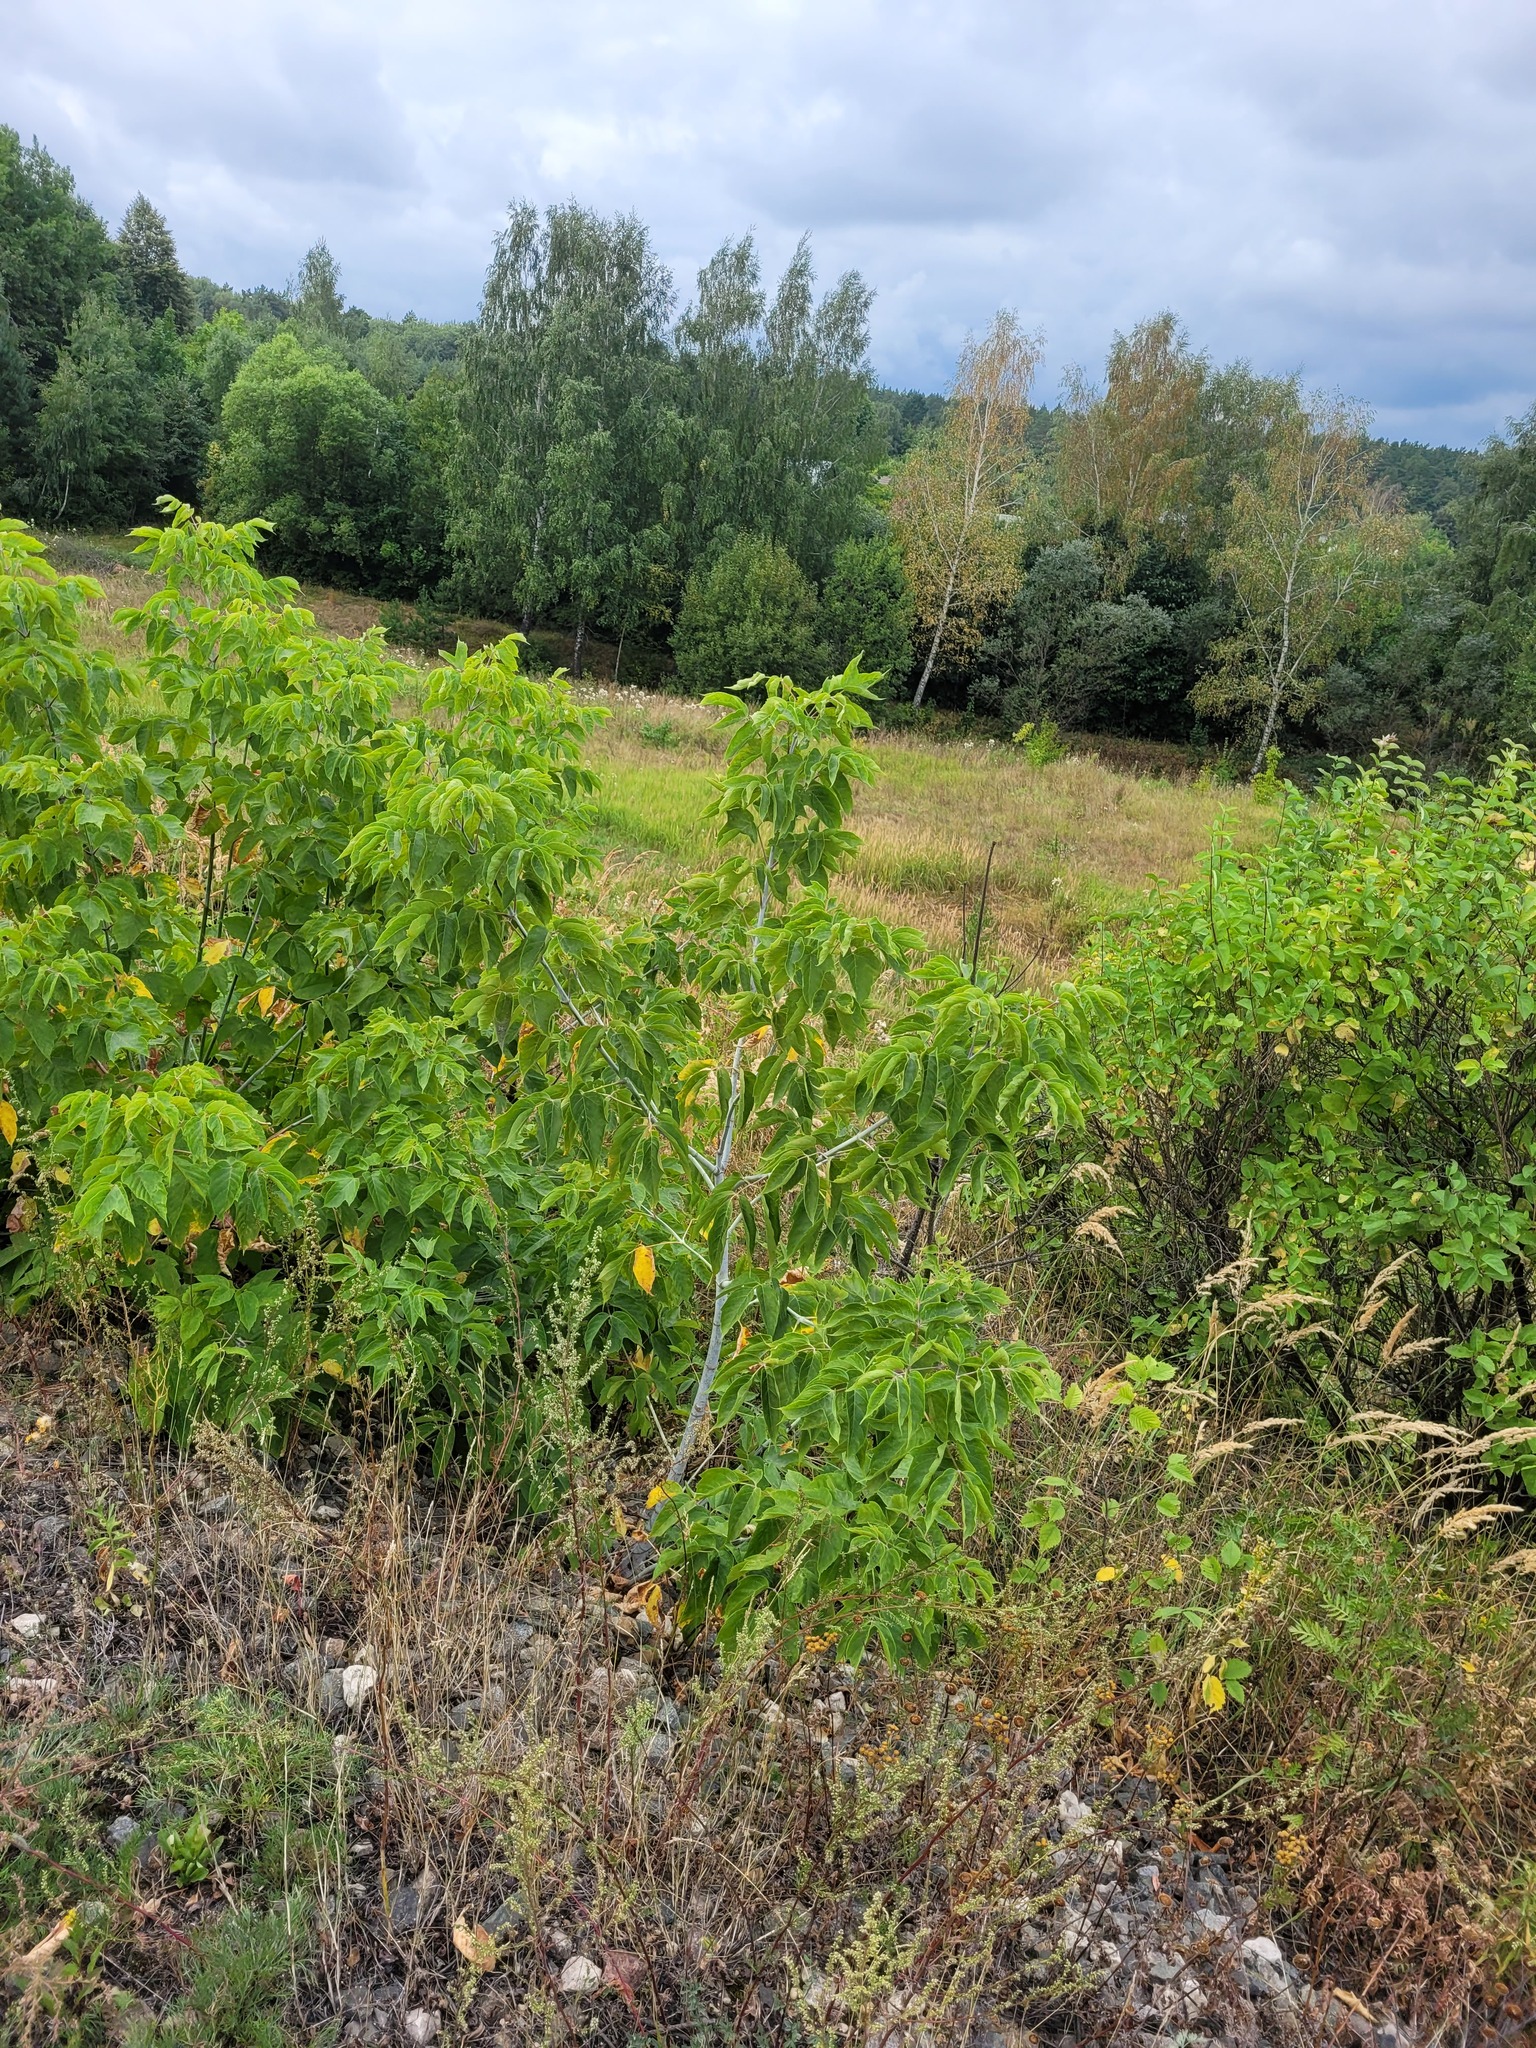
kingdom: Plantae
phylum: Tracheophyta
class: Magnoliopsida
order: Sapindales
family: Sapindaceae
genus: Acer
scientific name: Acer negundo
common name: Ashleaf maple
